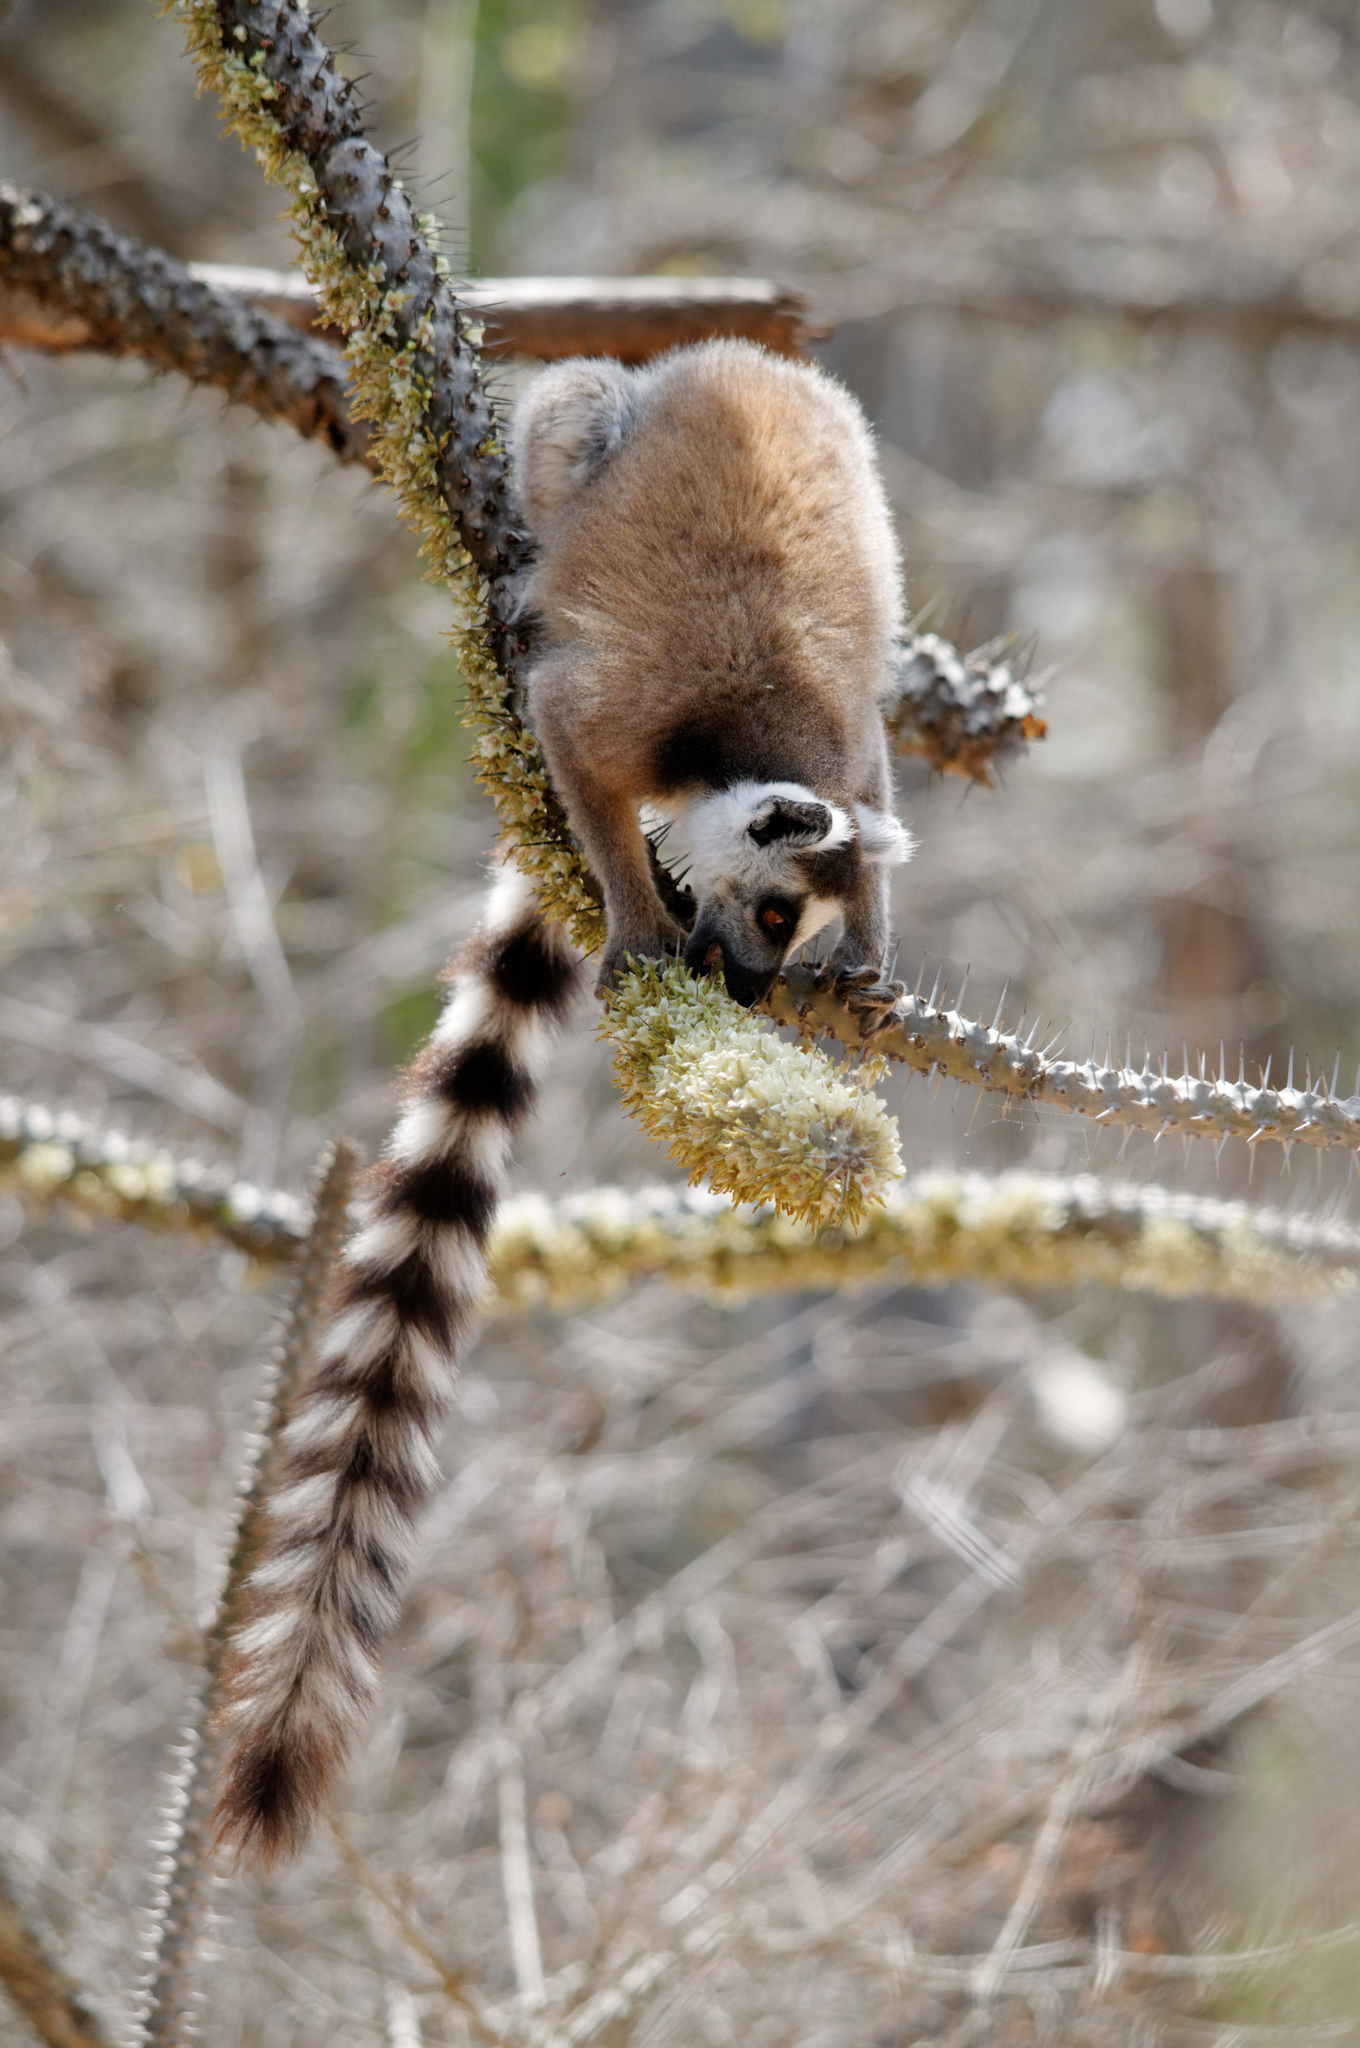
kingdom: Animalia
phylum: Chordata
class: Mammalia
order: Primates
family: Lemuridae
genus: Lemur
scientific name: Lemur catta
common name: Ring-tailed lemur
